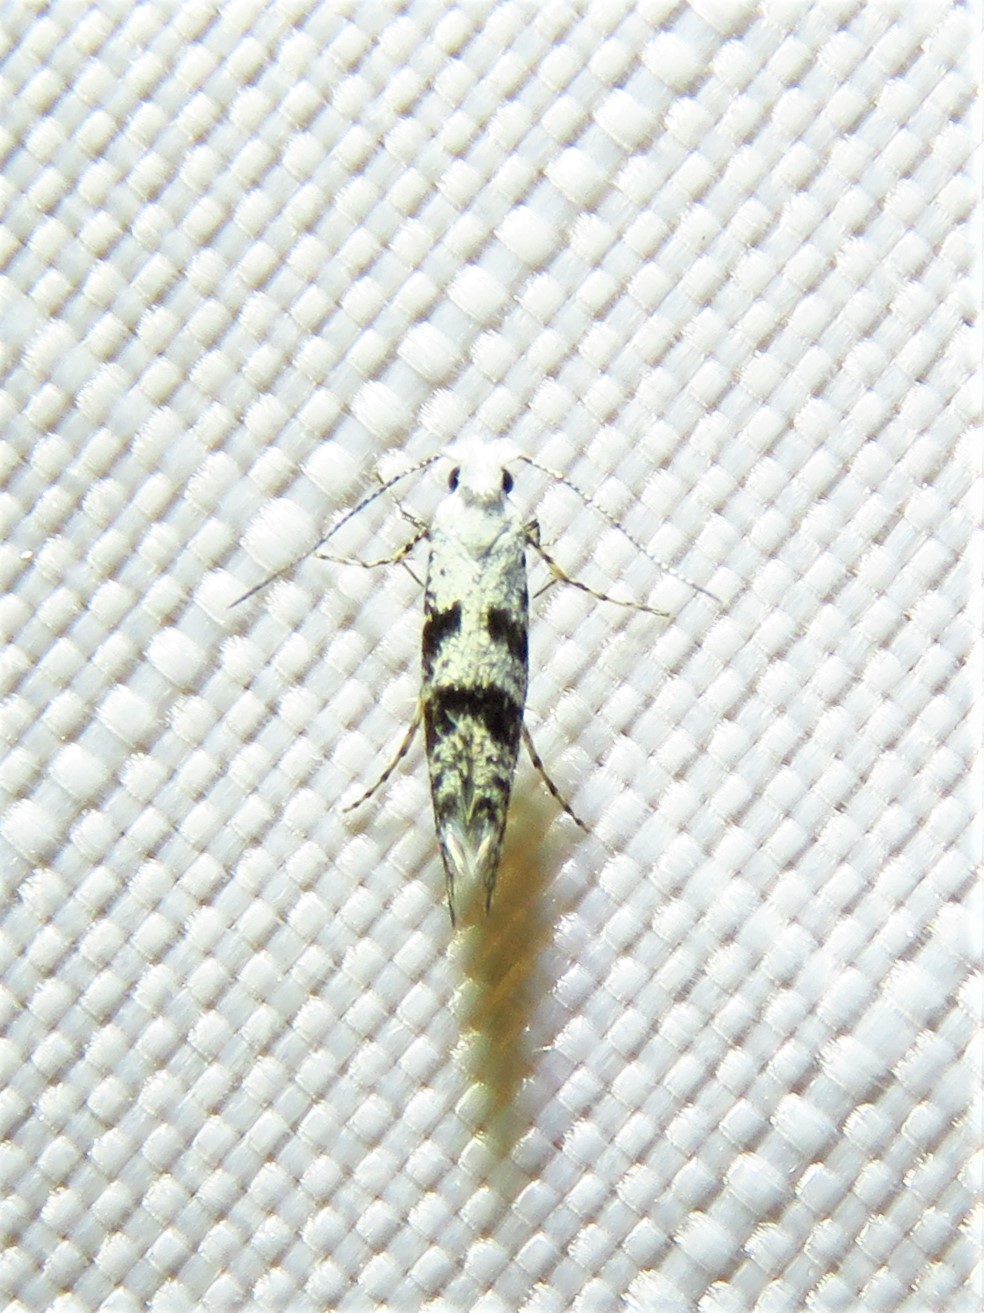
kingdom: Animalia
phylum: Arthropoda
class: Insecta
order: Lepidoptera
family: Argyresthiidae
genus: Argyresthia
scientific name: Argyresthia austerella
